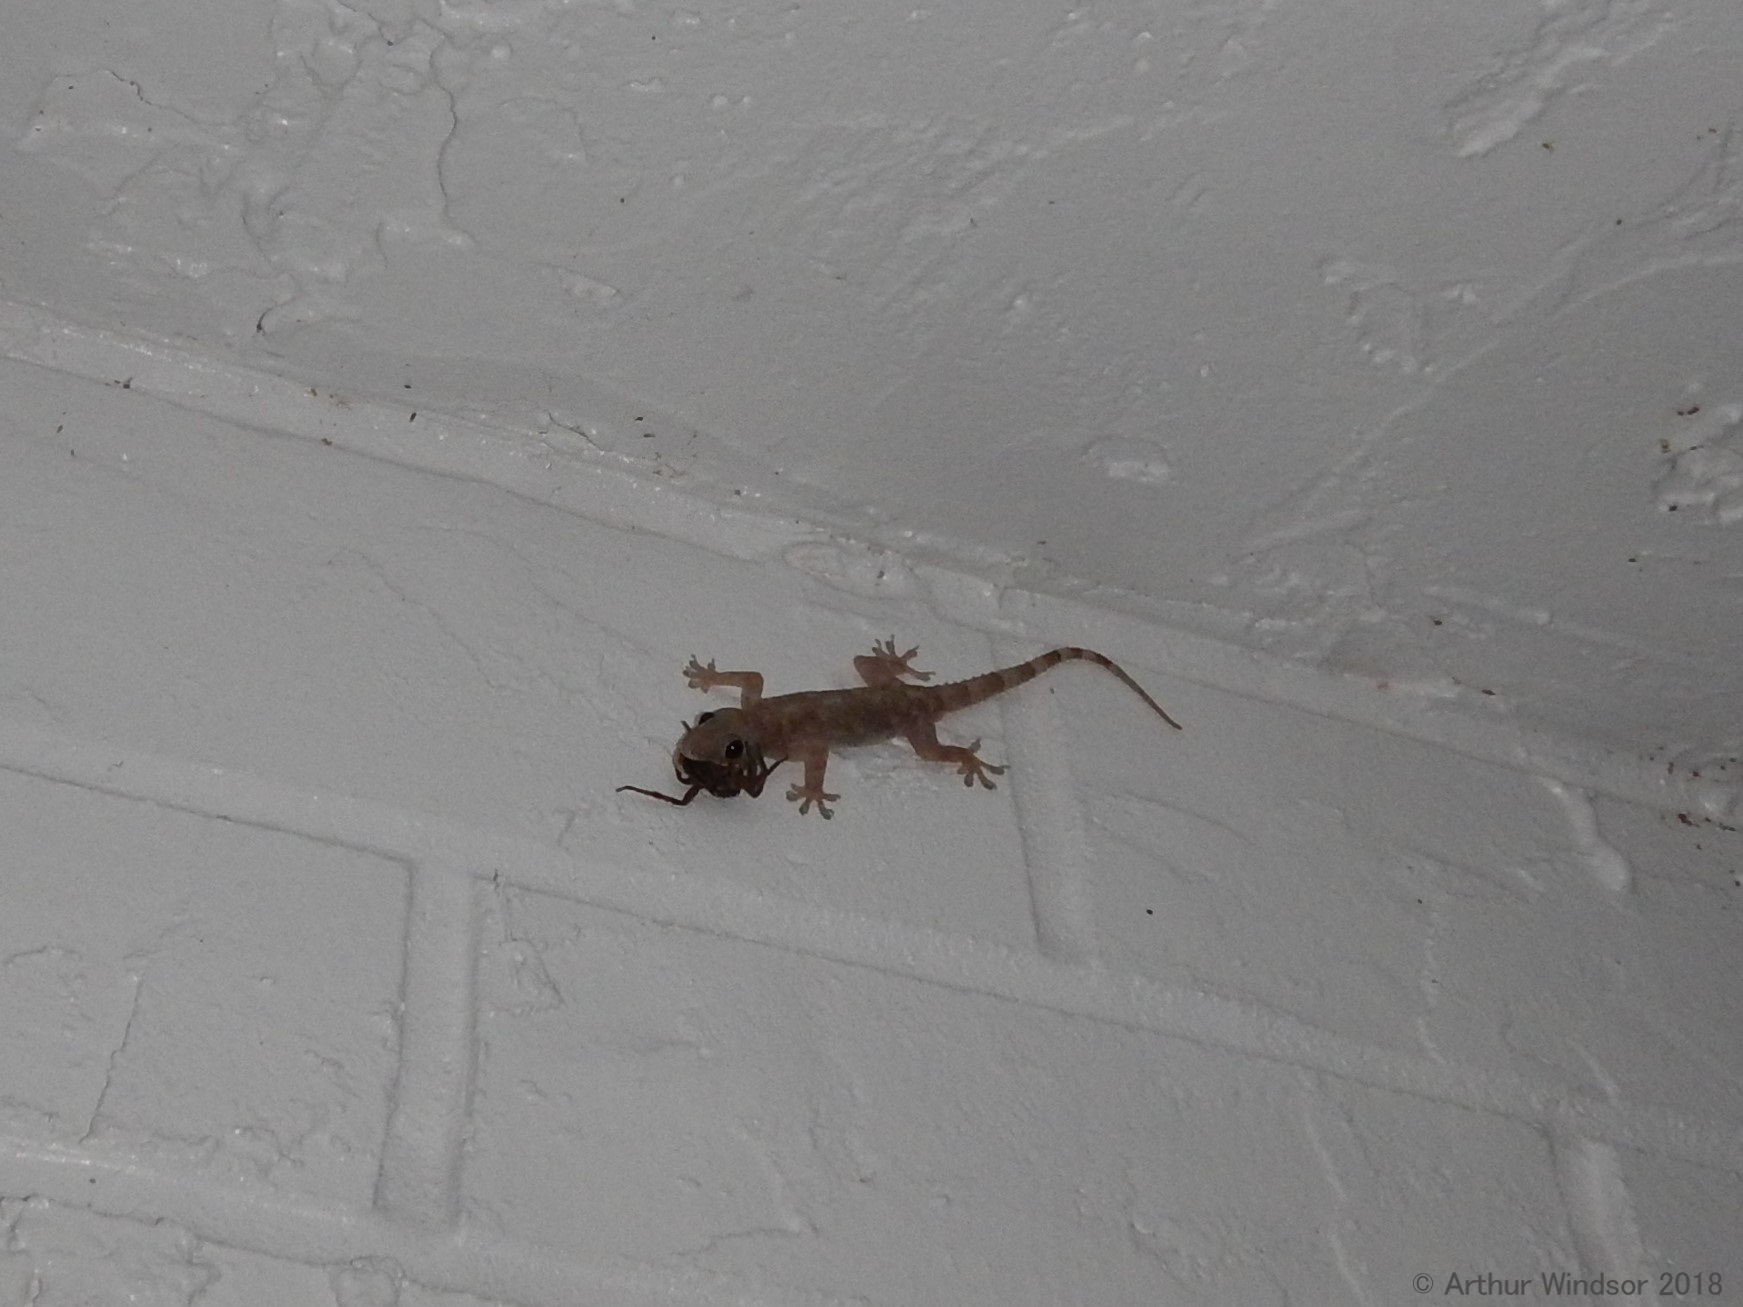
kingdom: Animalia
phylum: Chordata
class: Squamata
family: Gekkonidae
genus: Hemidactylus
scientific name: Hemidactylus mabouia
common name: House gecko
